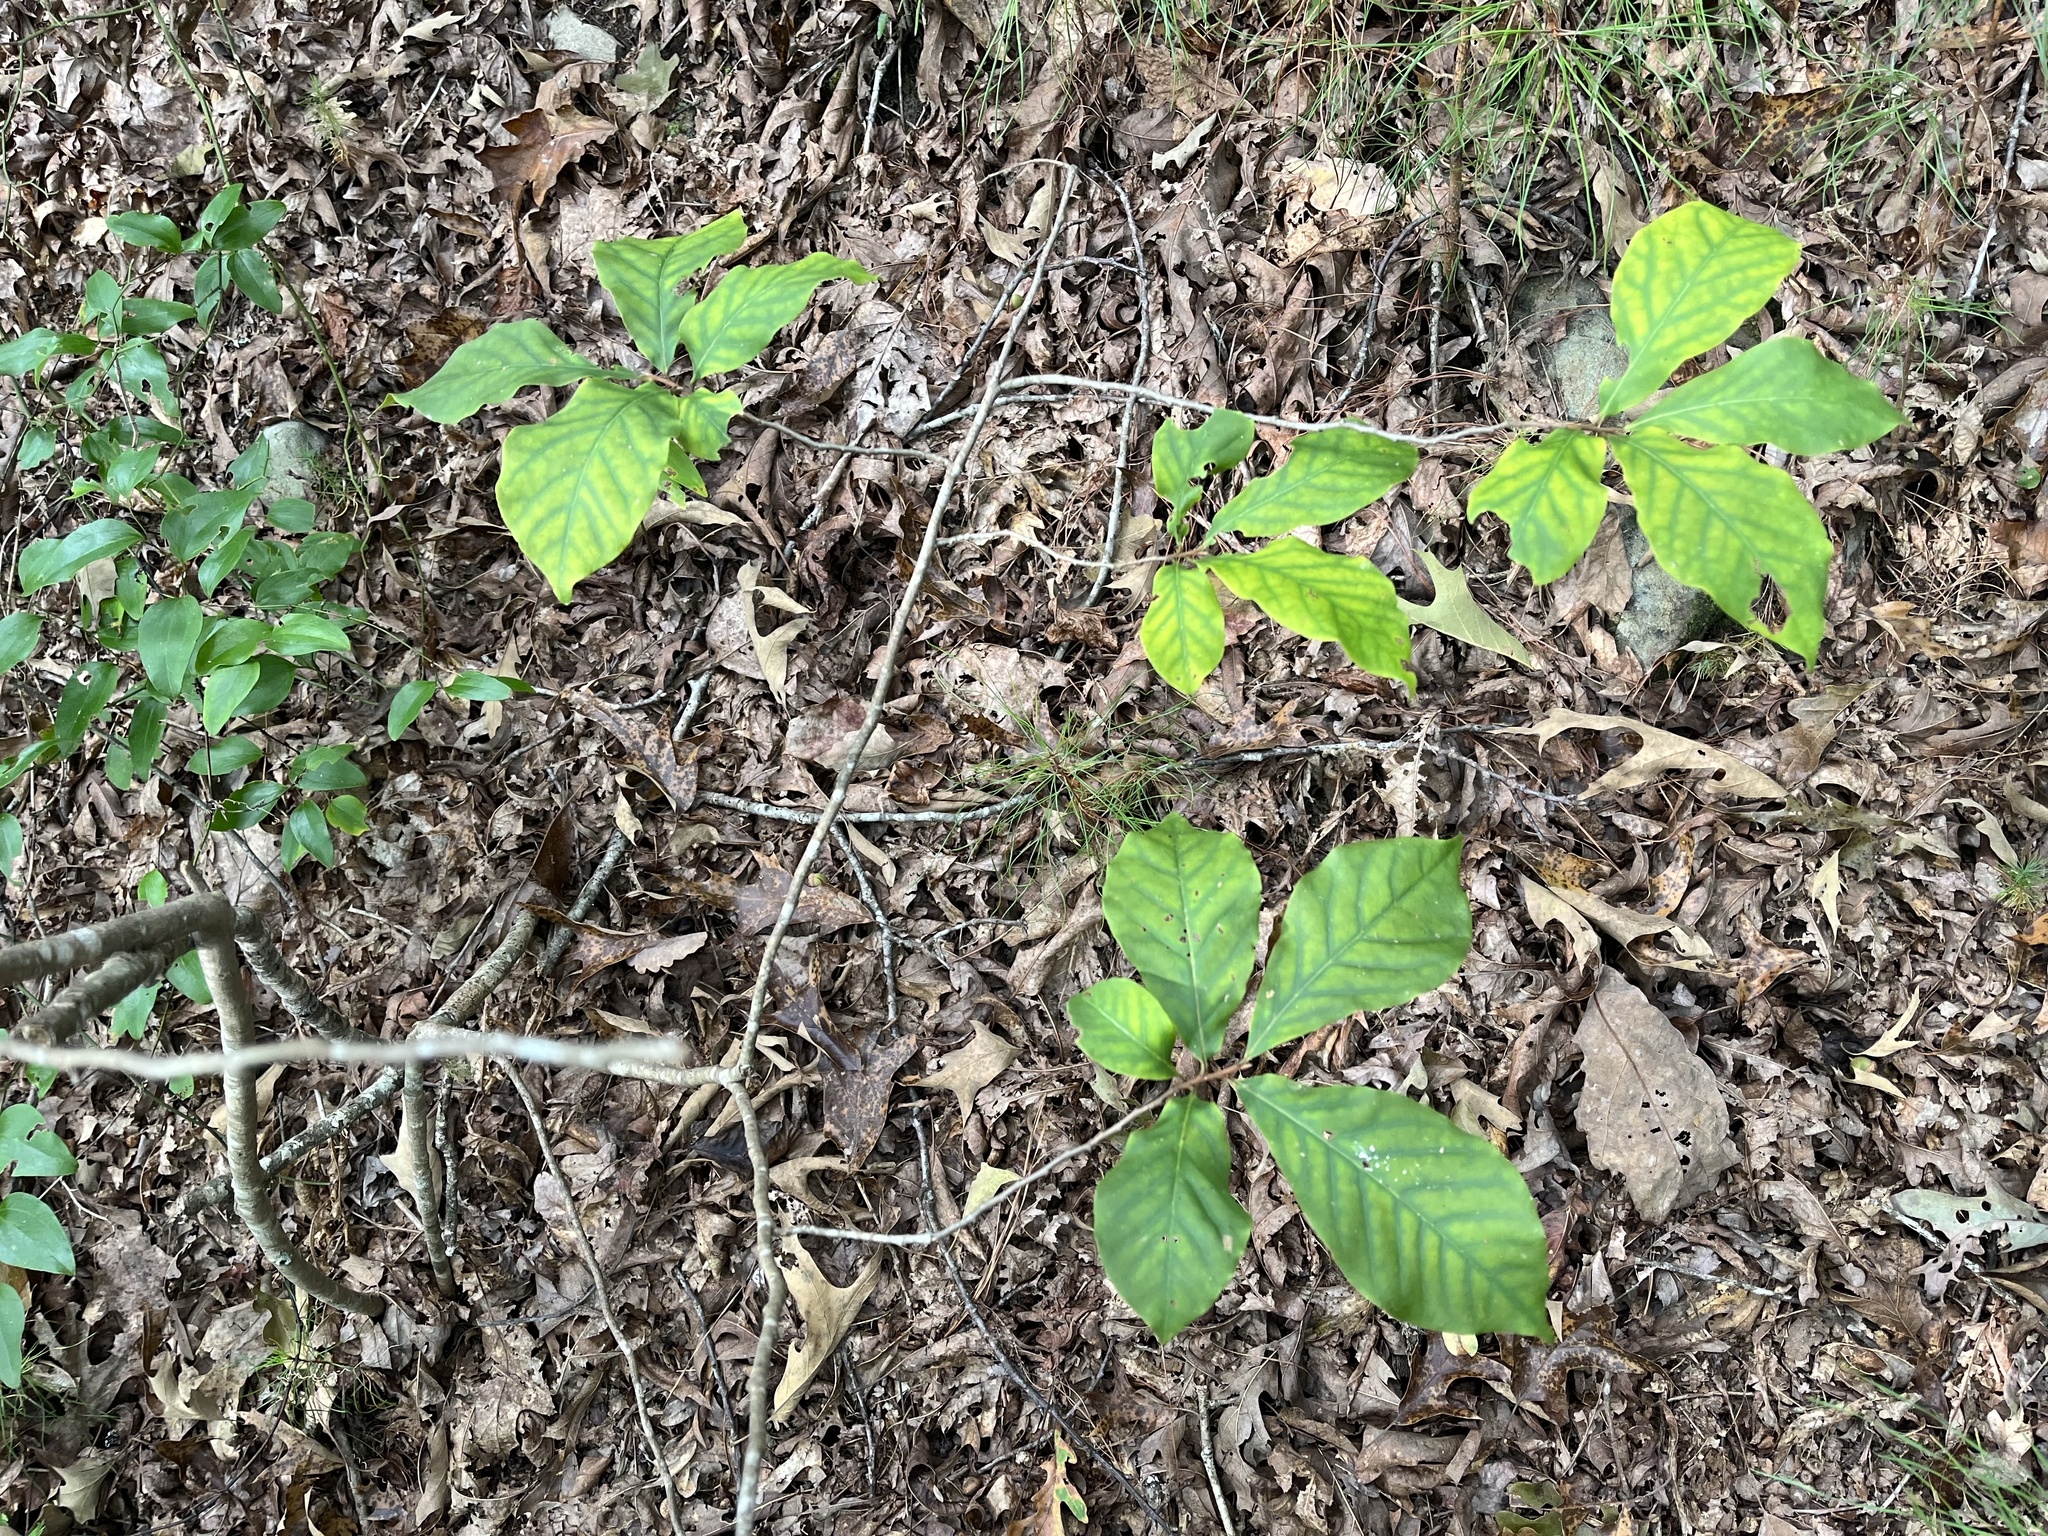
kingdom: Plantae
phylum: Tracheophyta
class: Magnoliopsida
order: Magnoliales
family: Annonaceae
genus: Asimina
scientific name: Asimina parviflora
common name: Dwarf pawpaw
